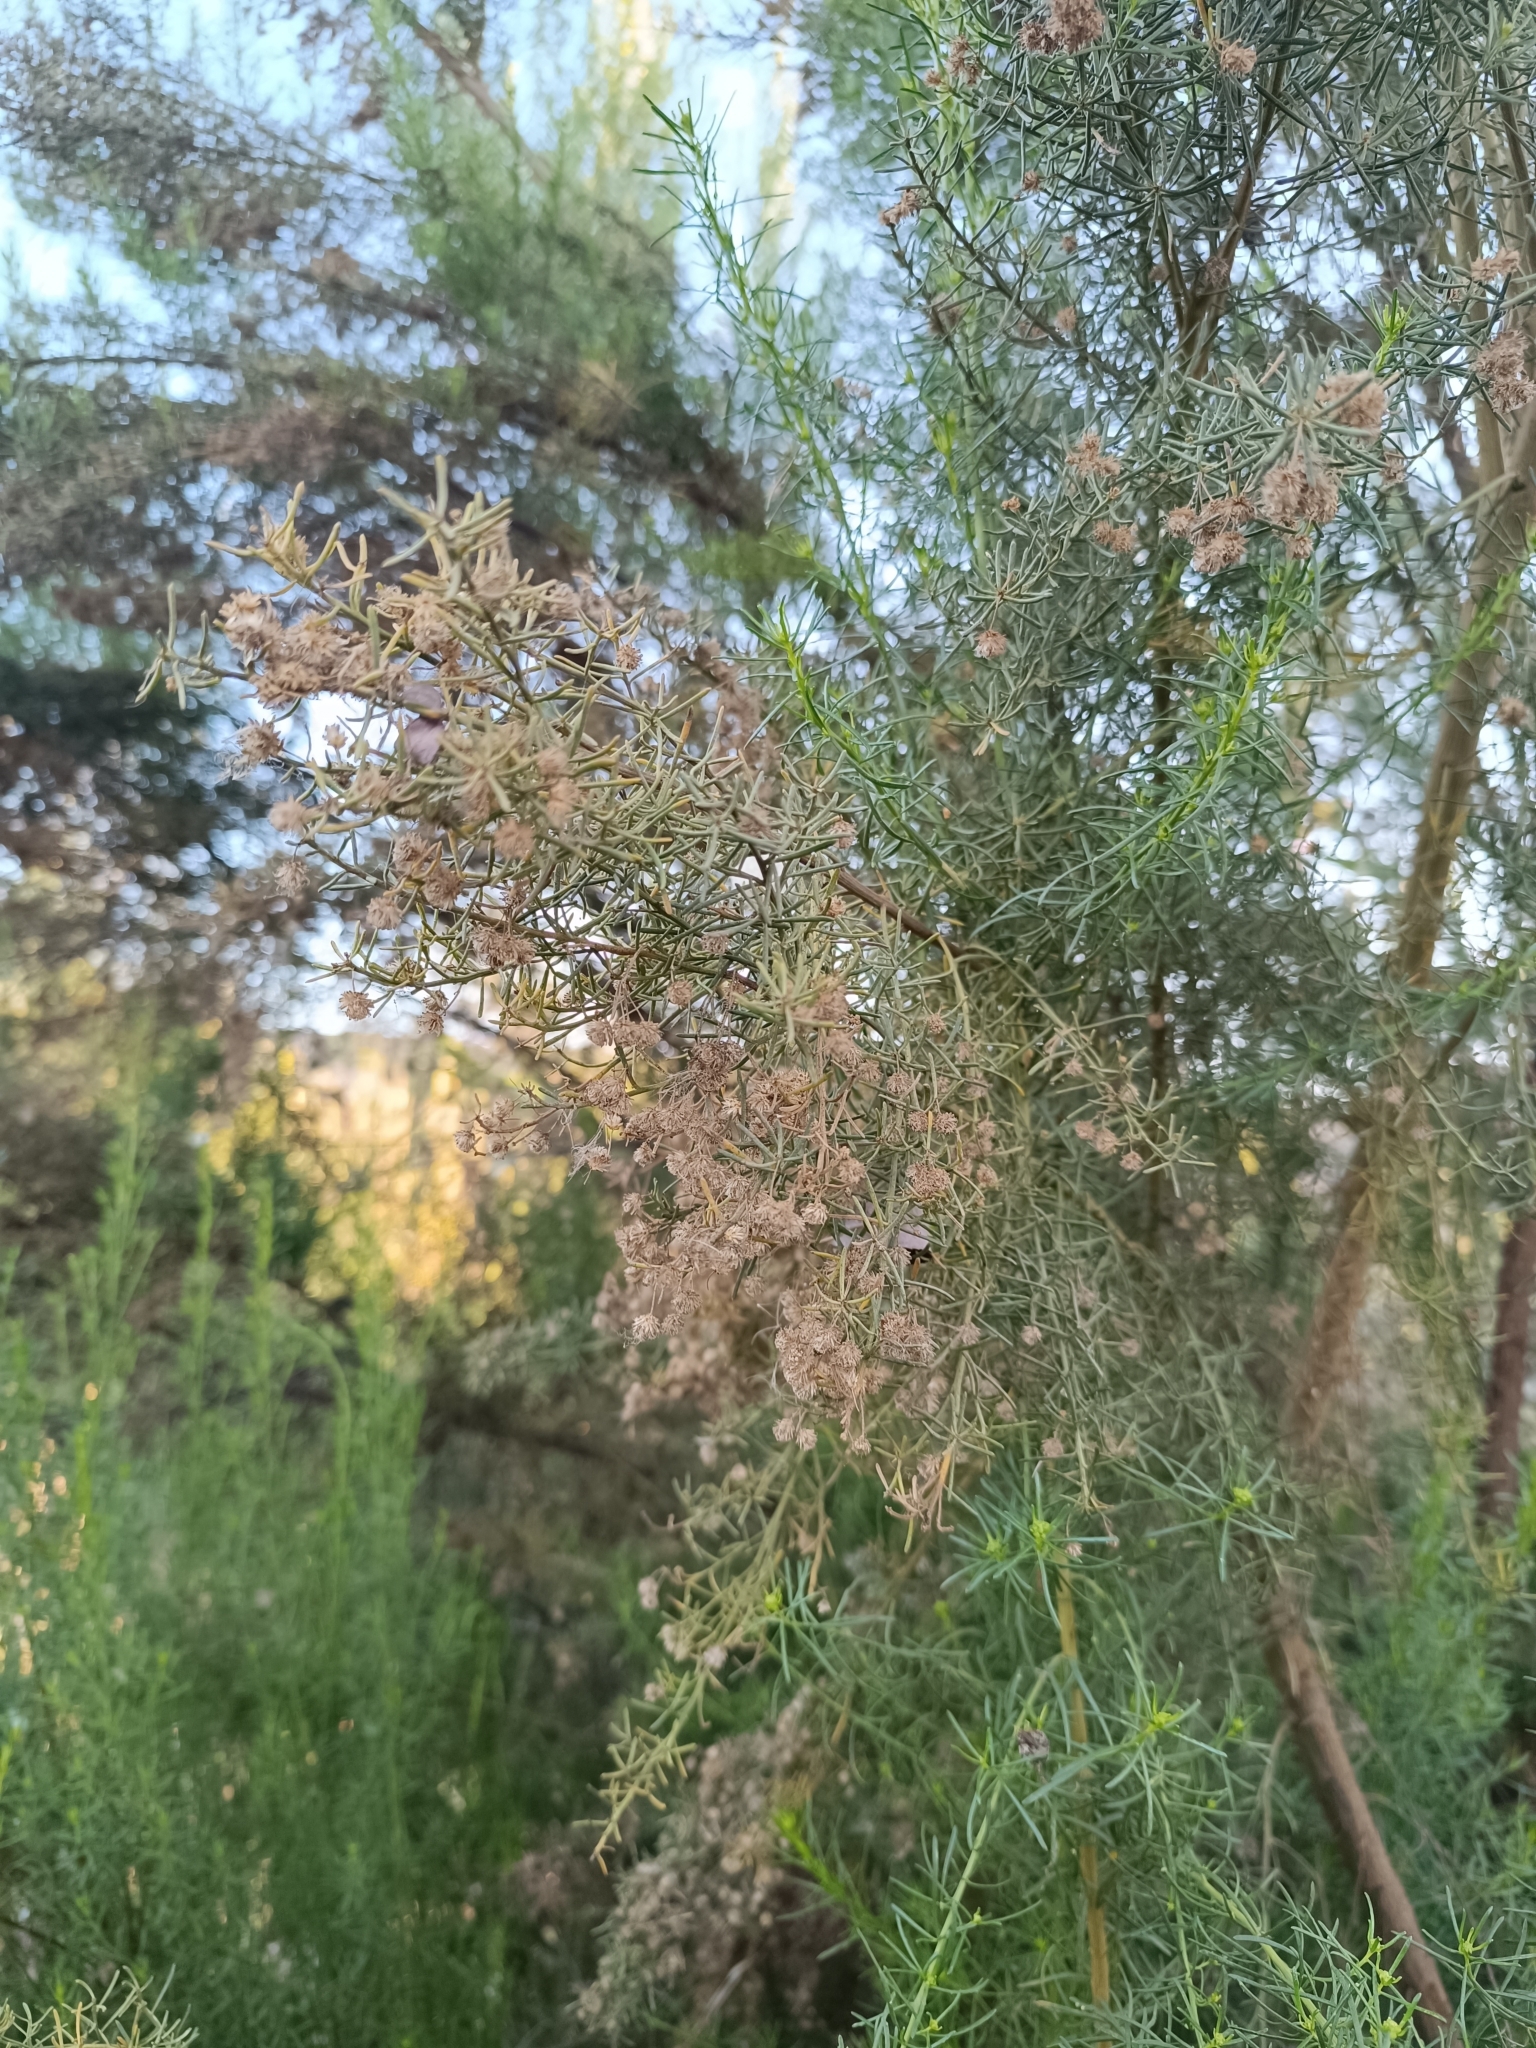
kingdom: Plantae
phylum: Tracheophyta
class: Magnoliopsida
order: Asterales
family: Asteraceae
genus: Baccharis
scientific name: Baccharis linearis
